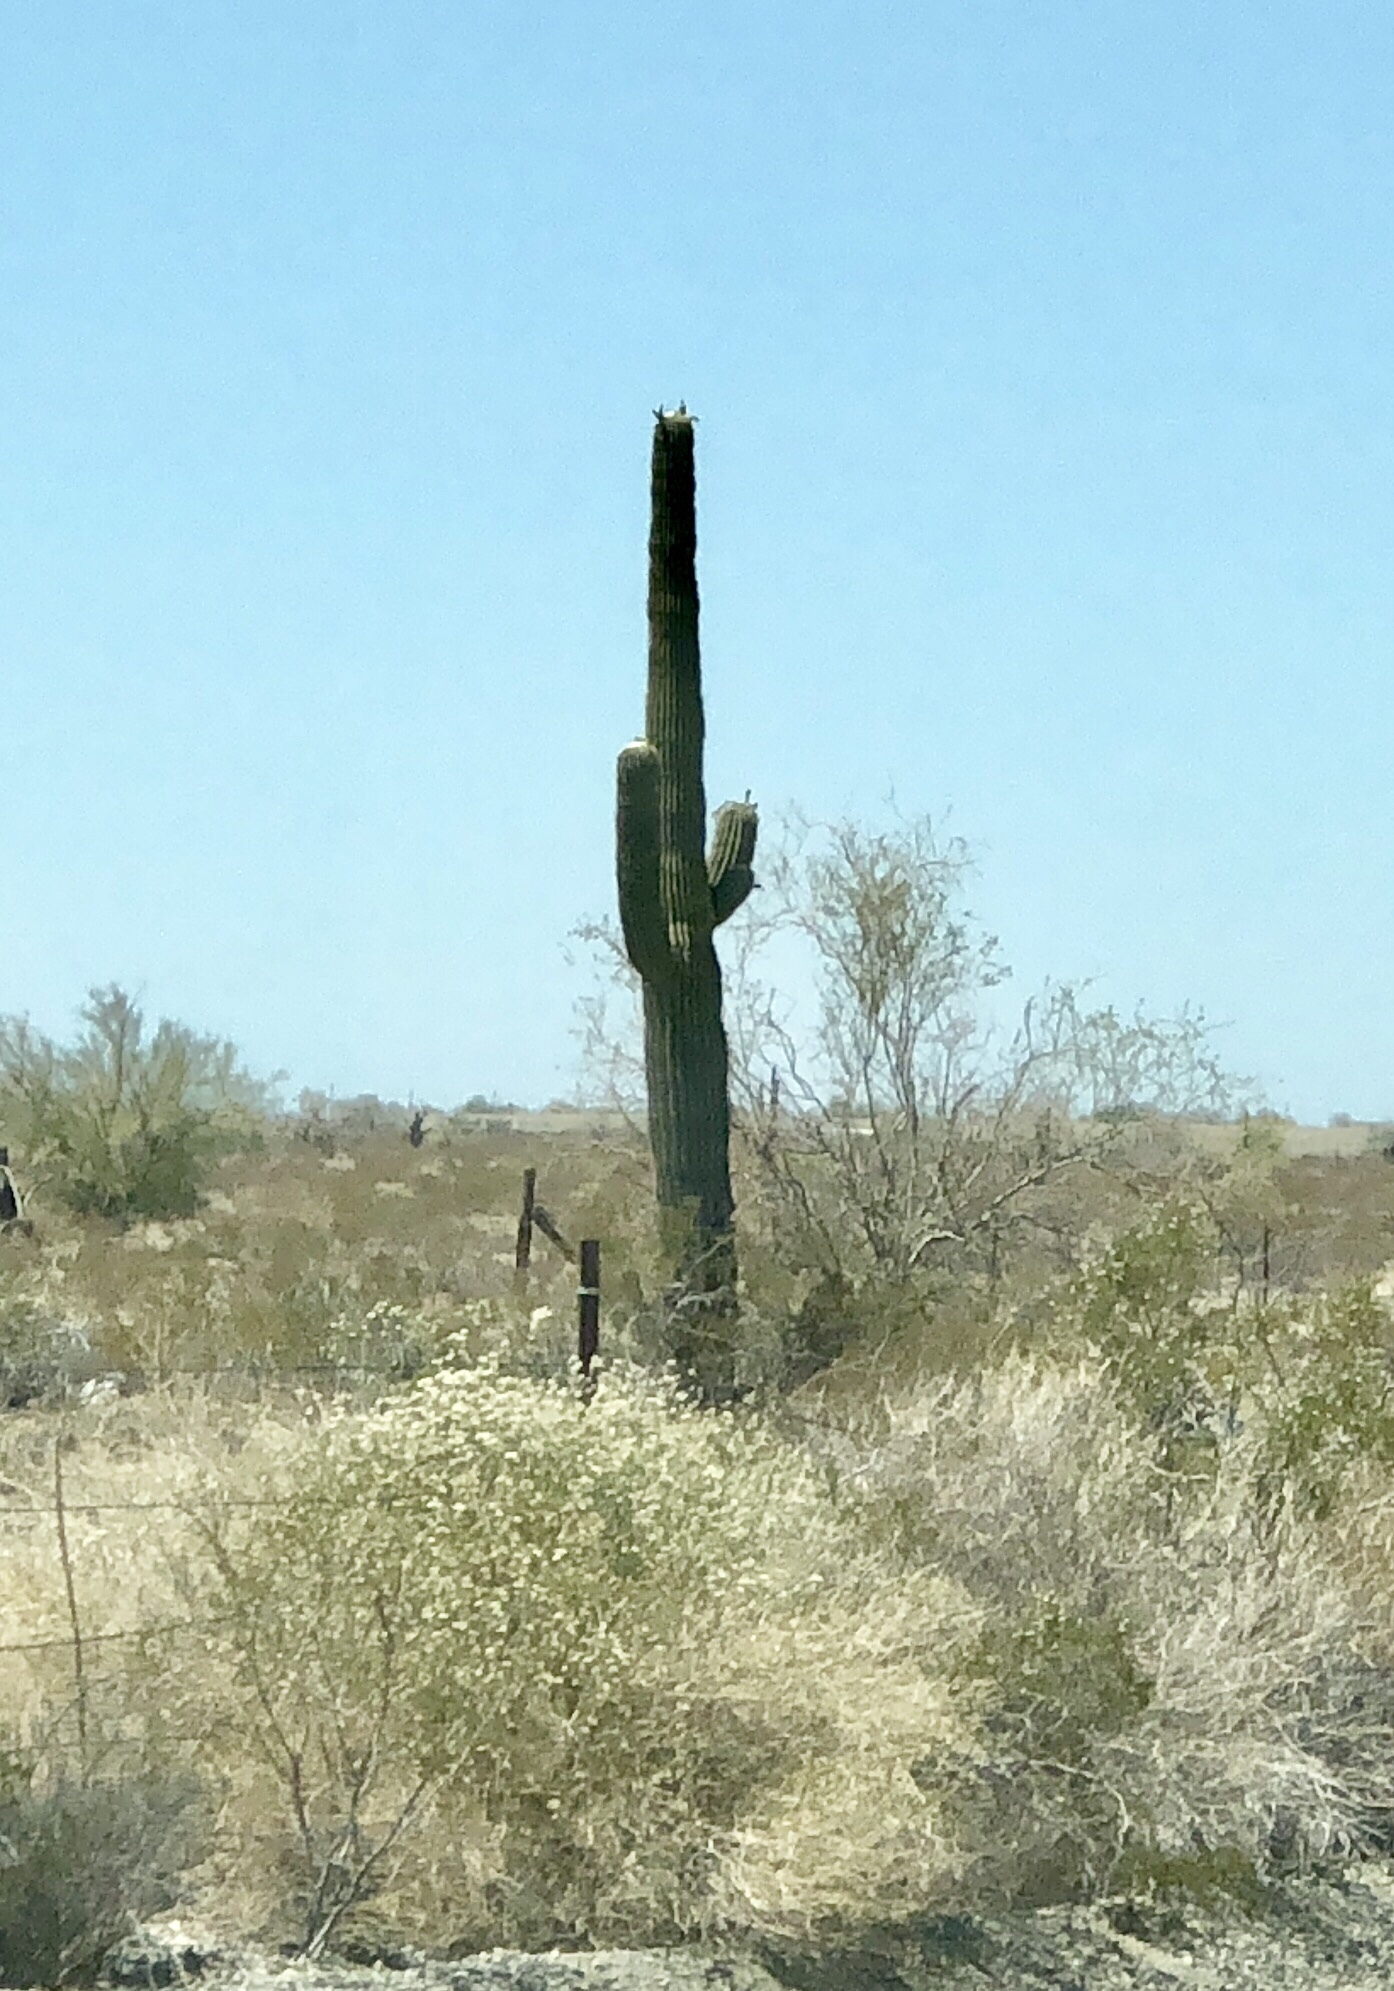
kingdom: Plantae
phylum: Tracheophyta
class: Magnoliopsida
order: Caryophyllales
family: Cactaceae
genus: Carnegiea
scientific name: Carnegiea gigantea
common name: Saguaro
